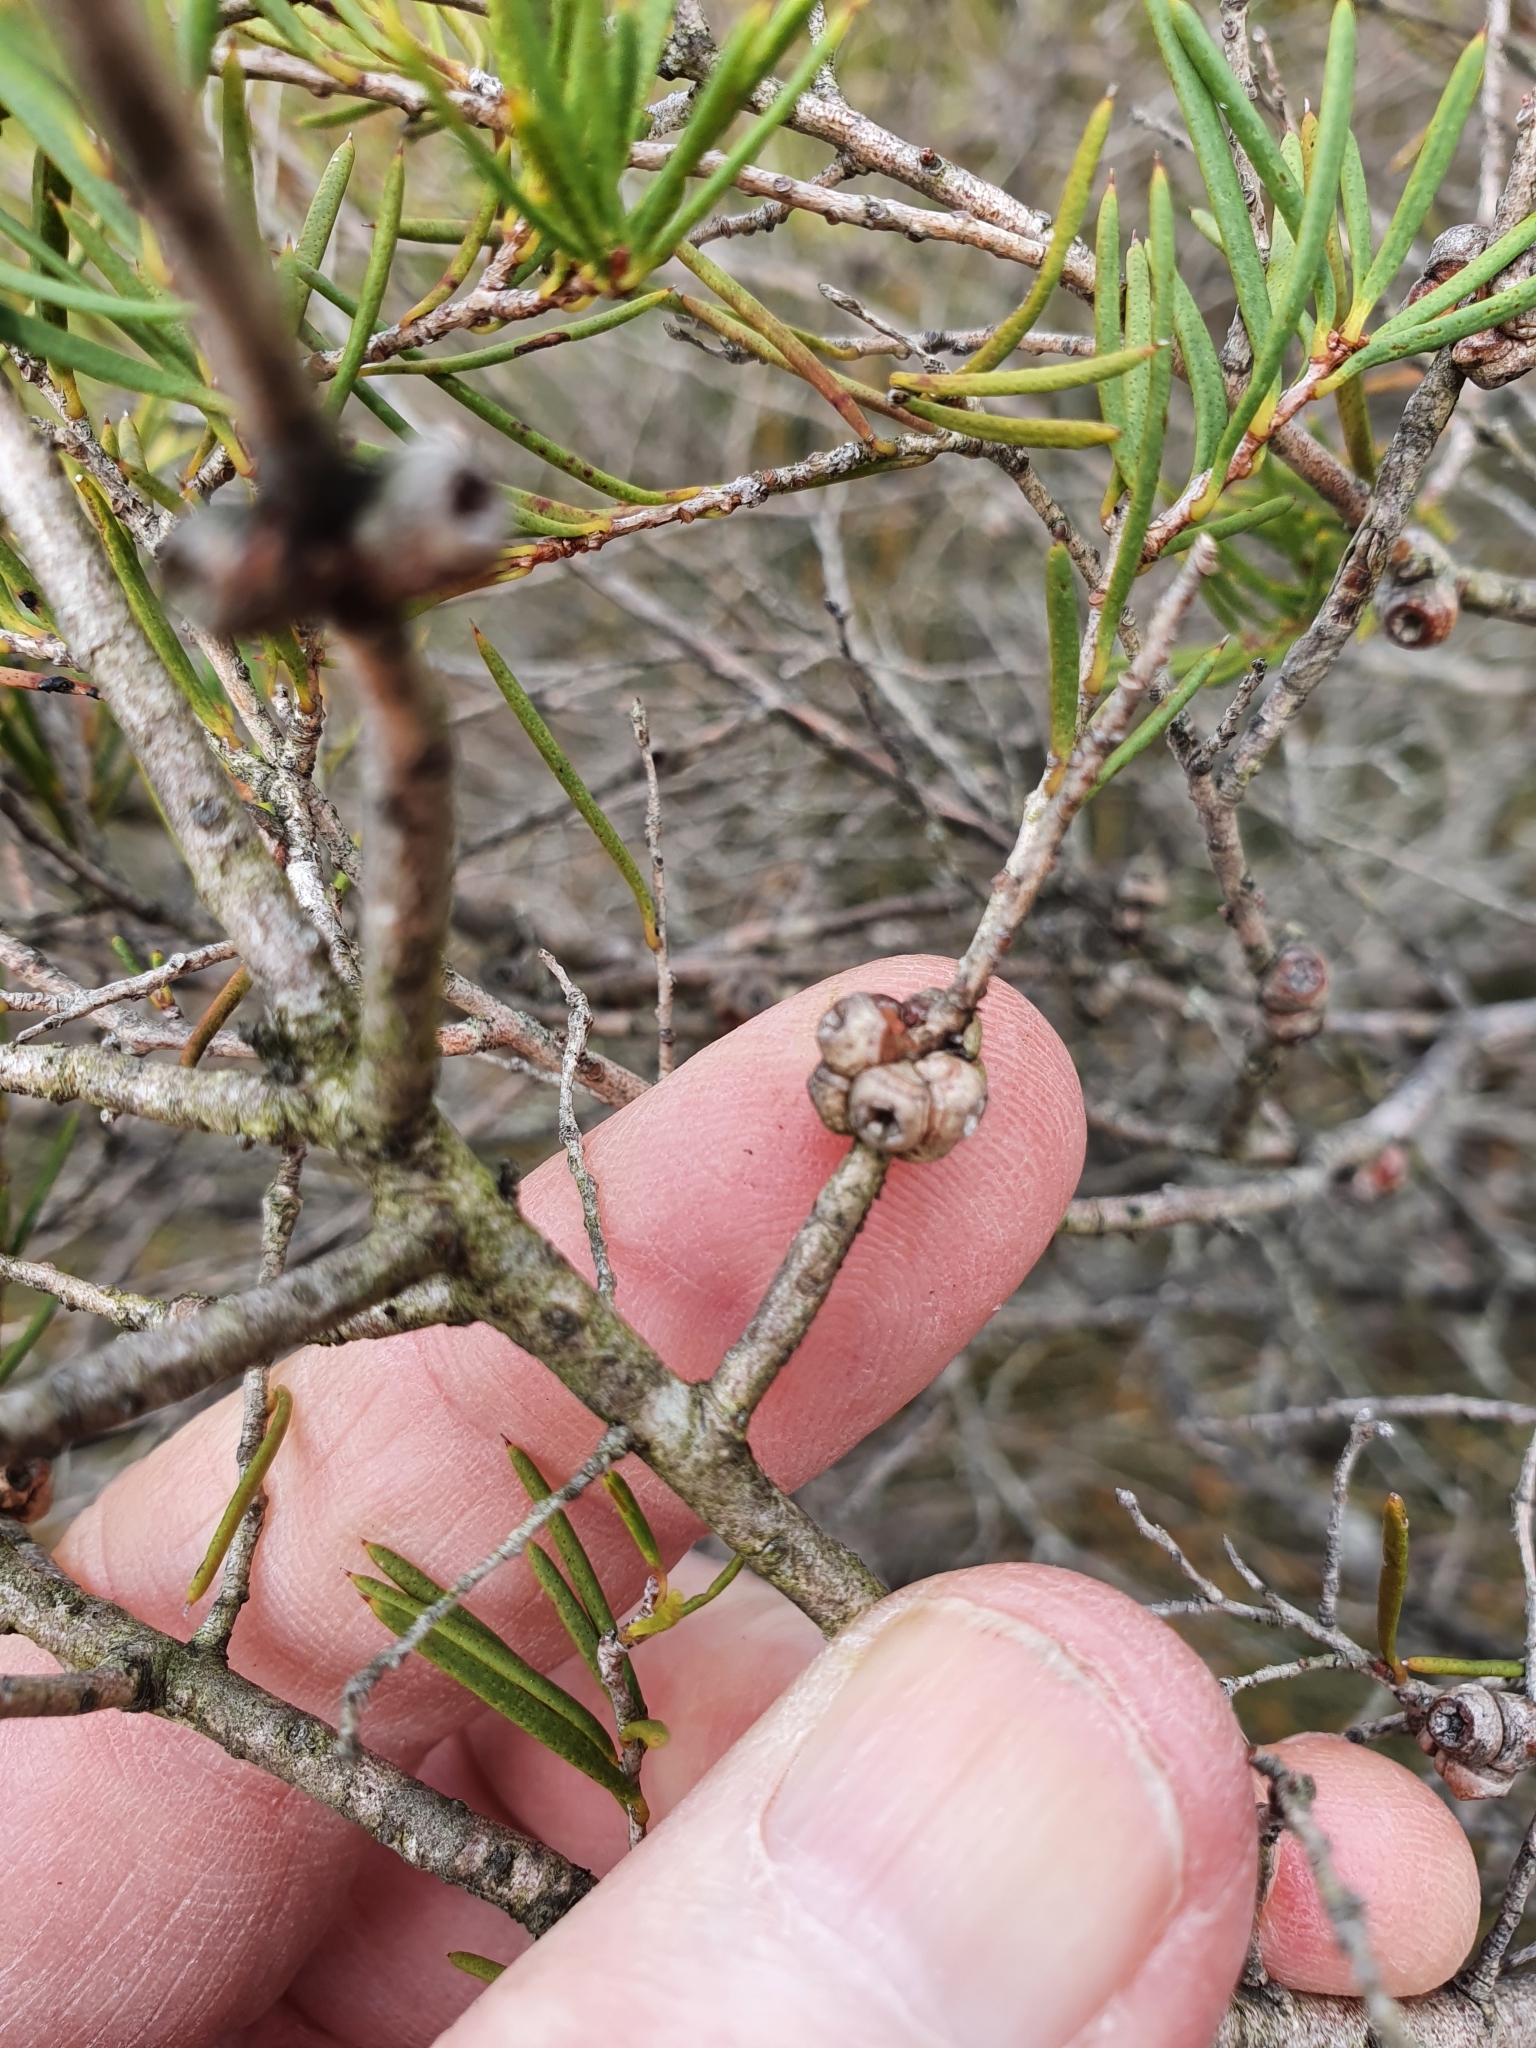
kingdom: Plantae
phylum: Tracheophyta
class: Magnoliopsida
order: Myrtales
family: Myrtaceae
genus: Melaleuca
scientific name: Melaleuca nodosa
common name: Prickly-leaf paperbark
